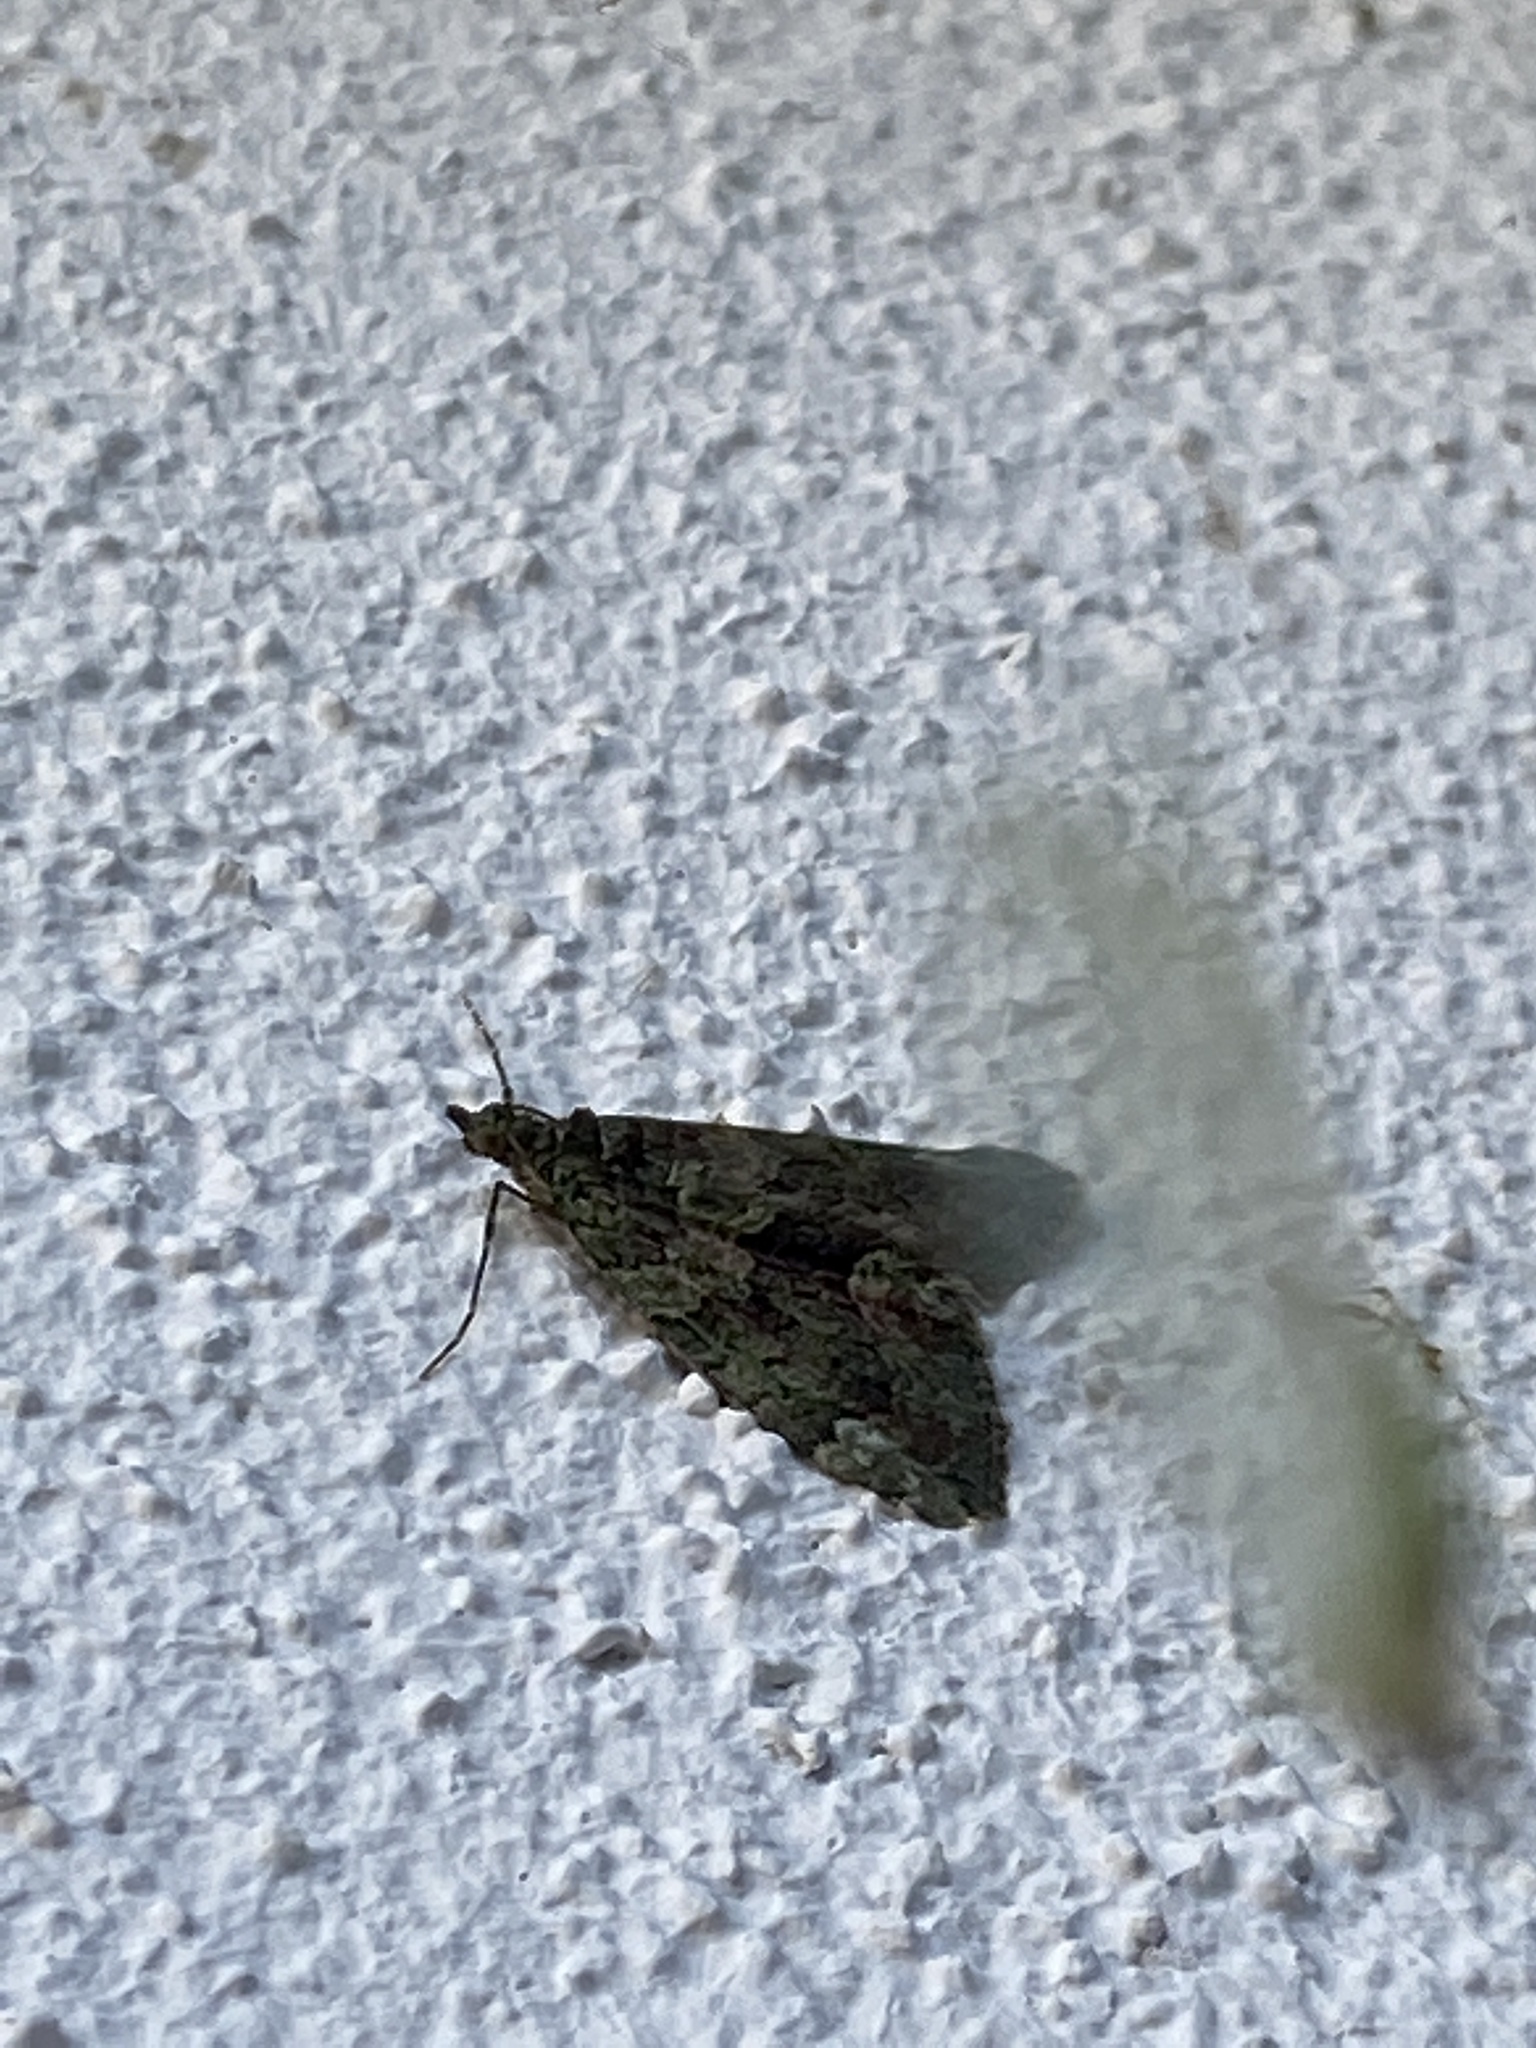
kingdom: Animalia
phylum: Arthropoda
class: Insecta
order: Lepidoptera
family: Geometridae
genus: Chloroclysta
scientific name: Chloroclysta siterata
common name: Red-green carpet
